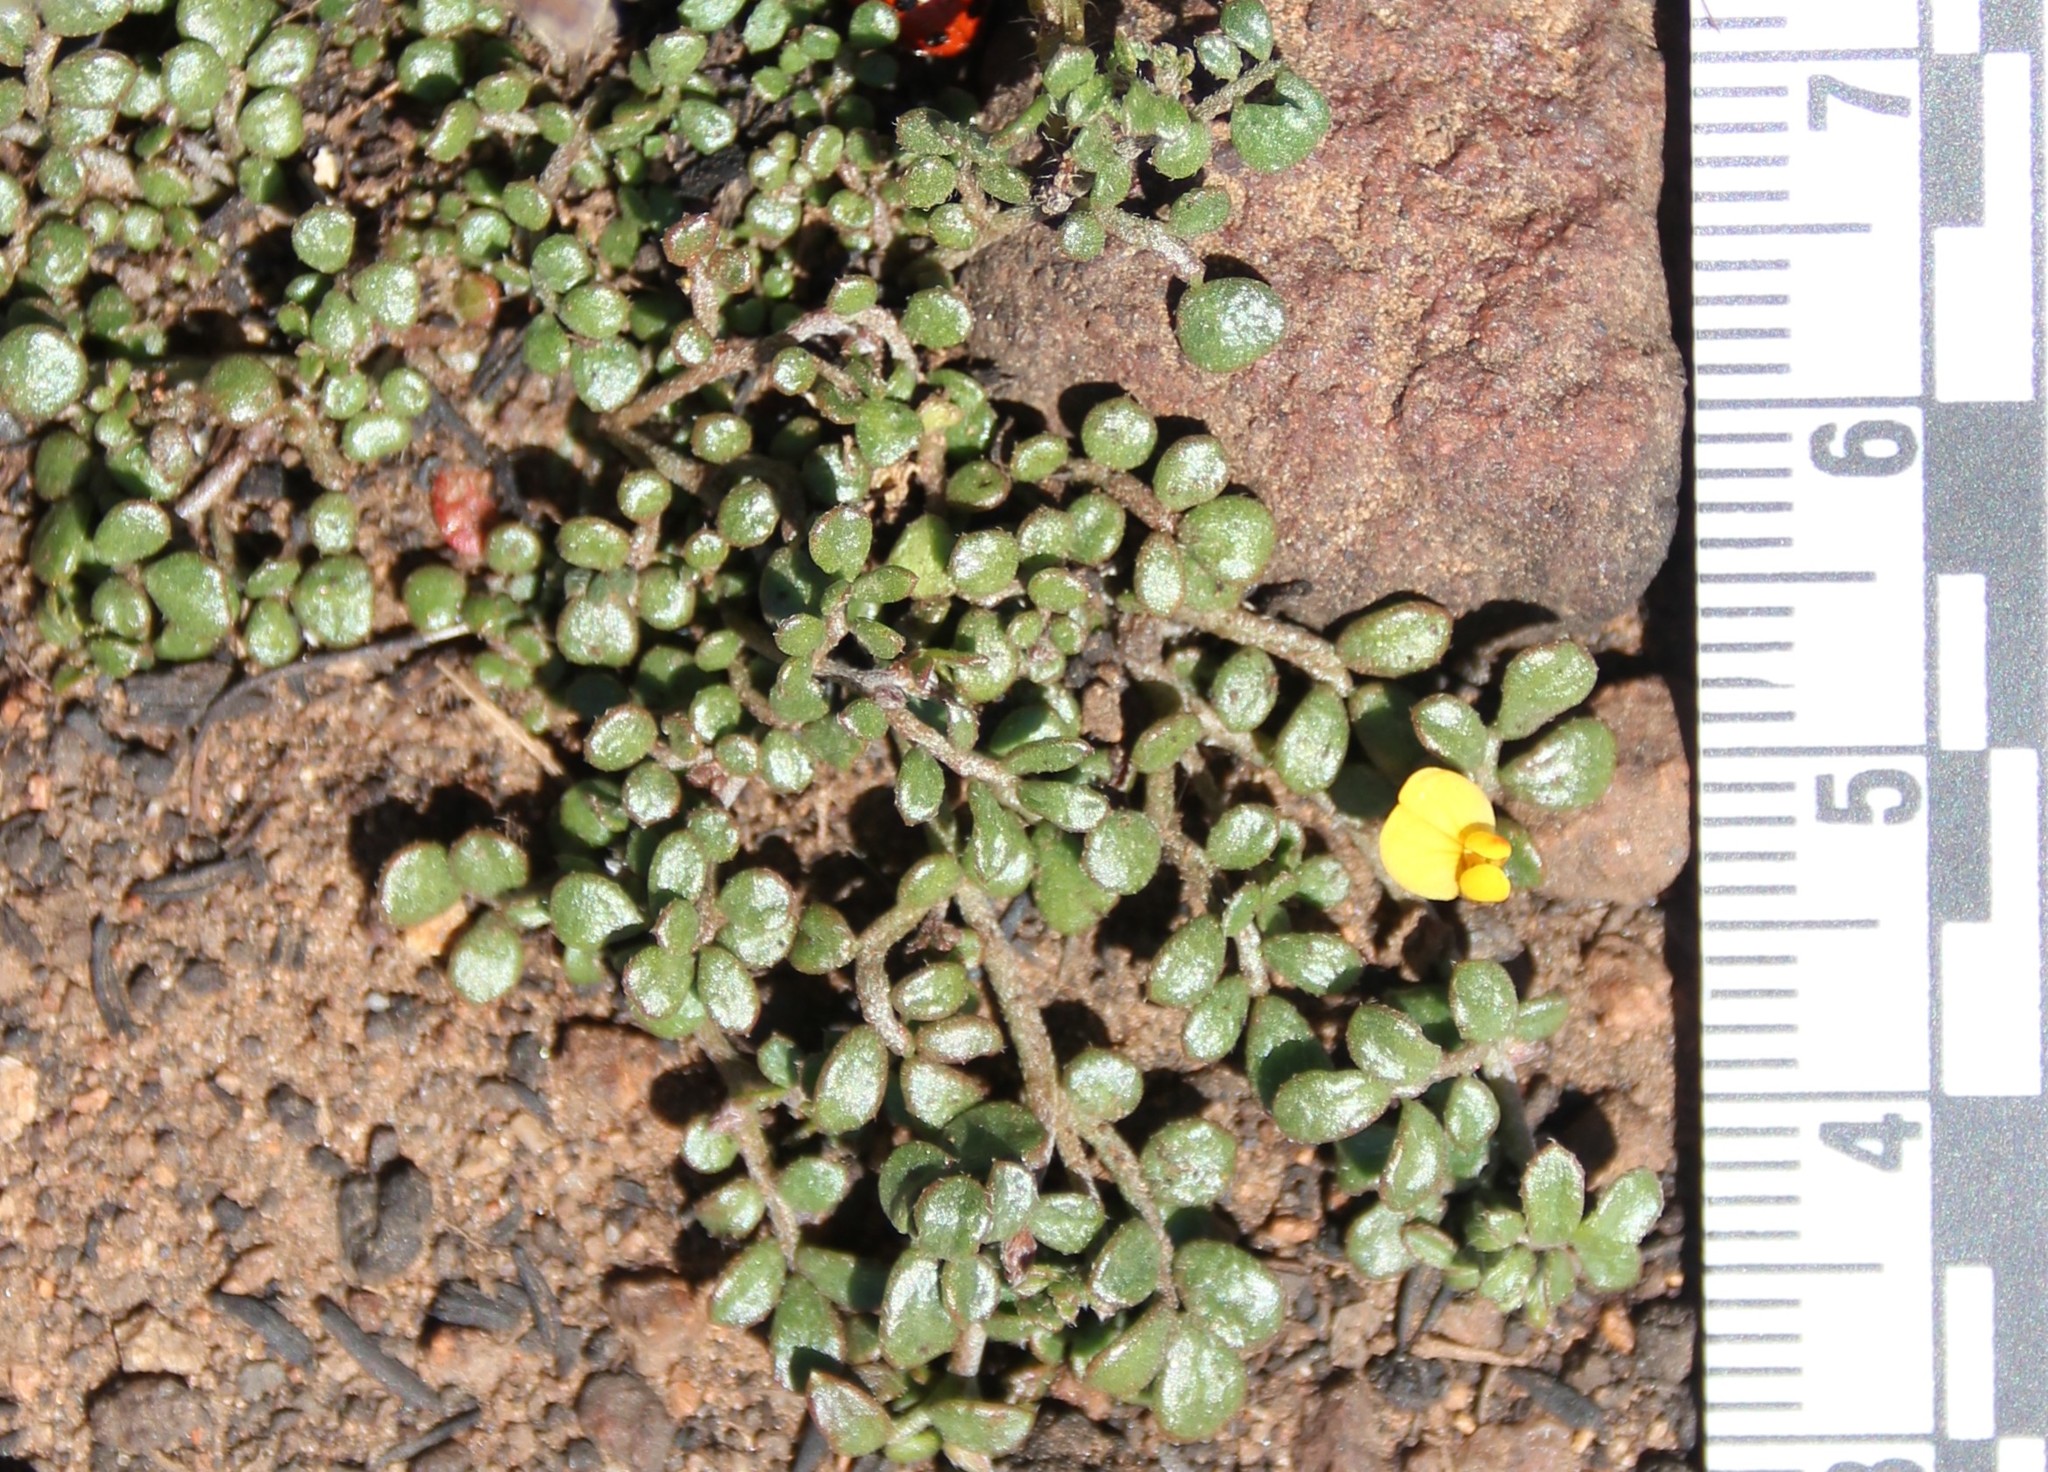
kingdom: Plantae
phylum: Tracheophyta
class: Magnoliopsida
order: Fabales
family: Fabaceae
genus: Acmispon
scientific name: Acmispon strigosus
